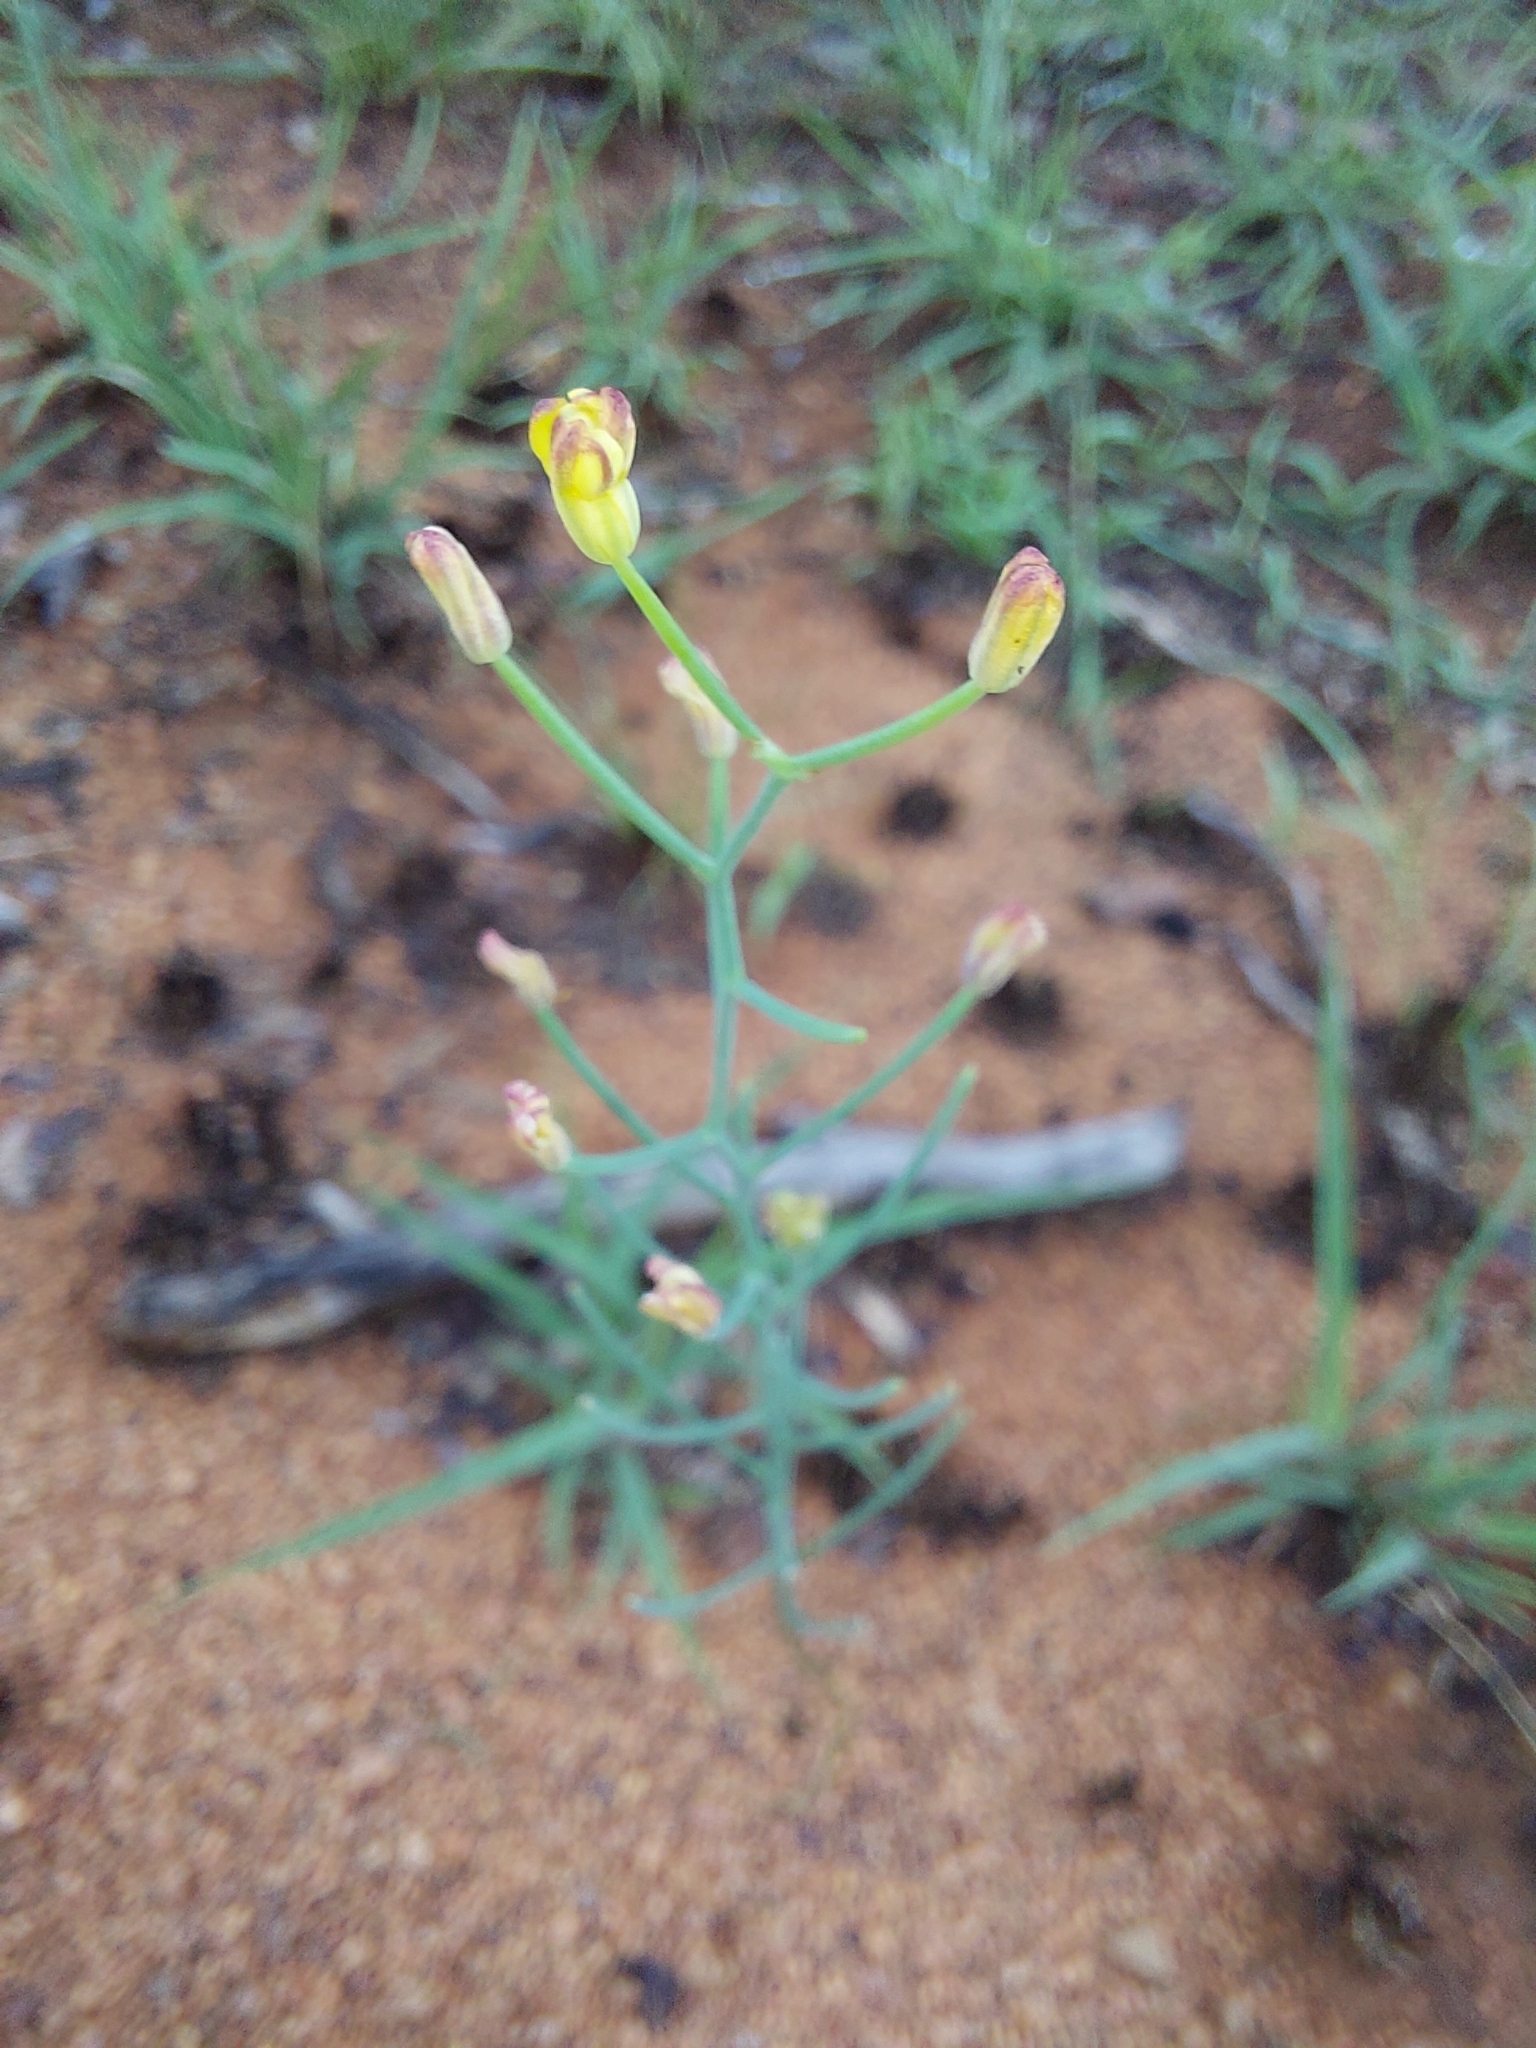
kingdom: Plantae
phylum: Tracheophyta
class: Liliopsida
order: Asparagales
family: Asparagaceae
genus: Eriospermum
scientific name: Eriospermum porphyrovalve
